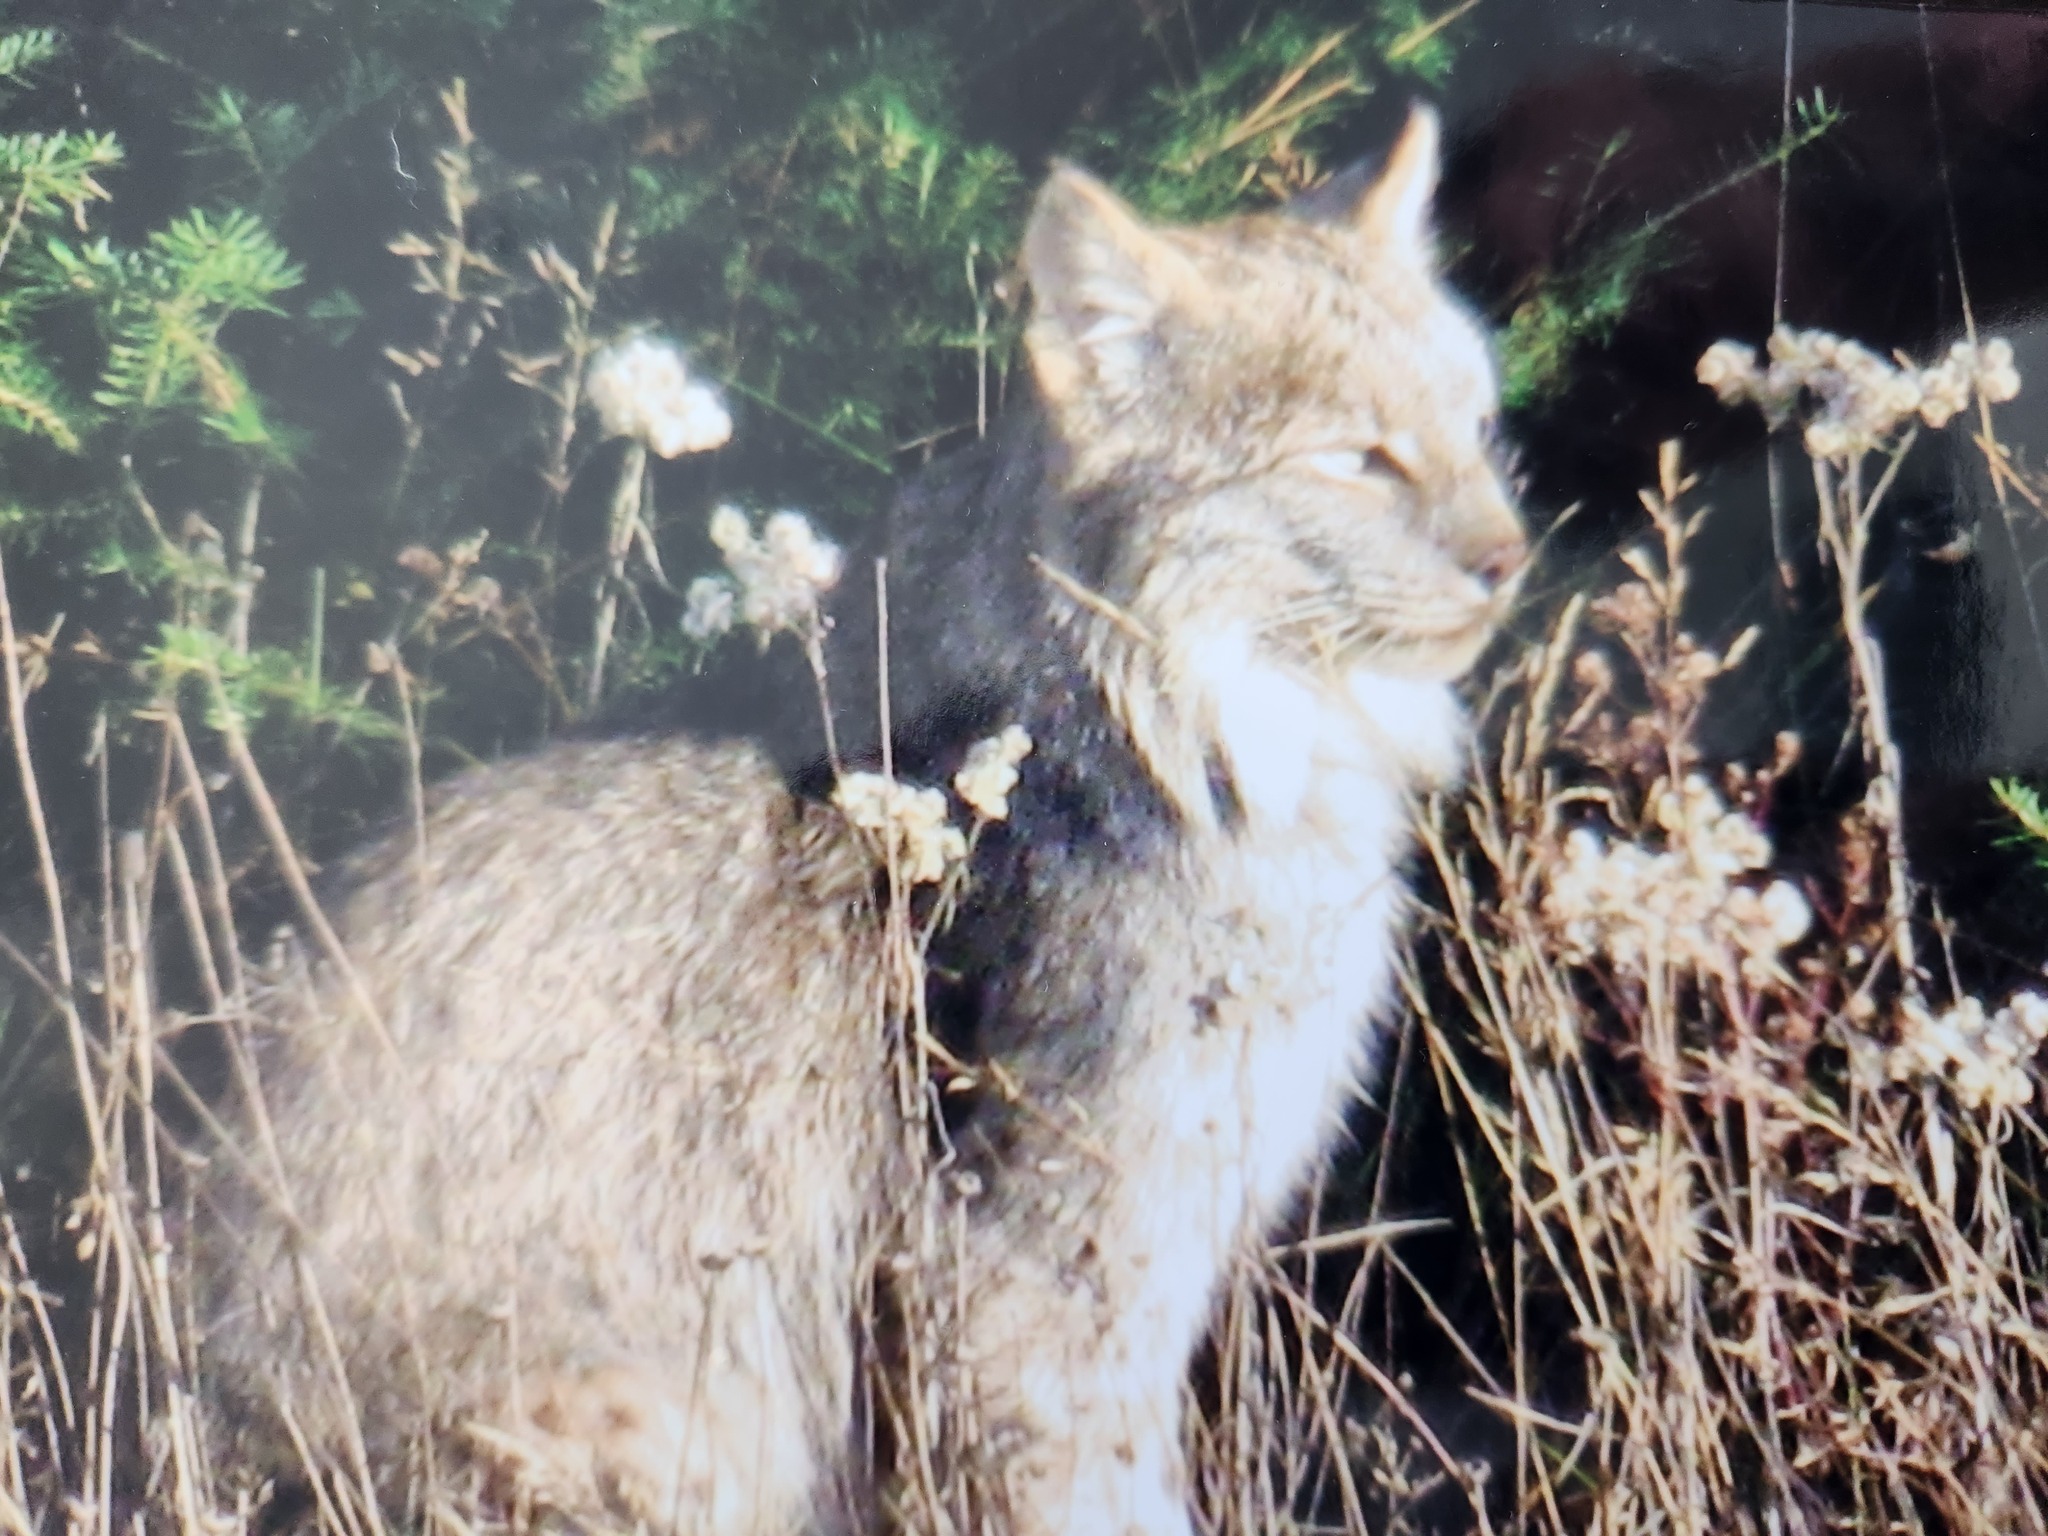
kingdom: Animalia
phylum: Chordata
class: Mammalia
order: Carnivora
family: Felidae
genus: Lynx
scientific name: Lynx canadensis
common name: Canadian lynx
